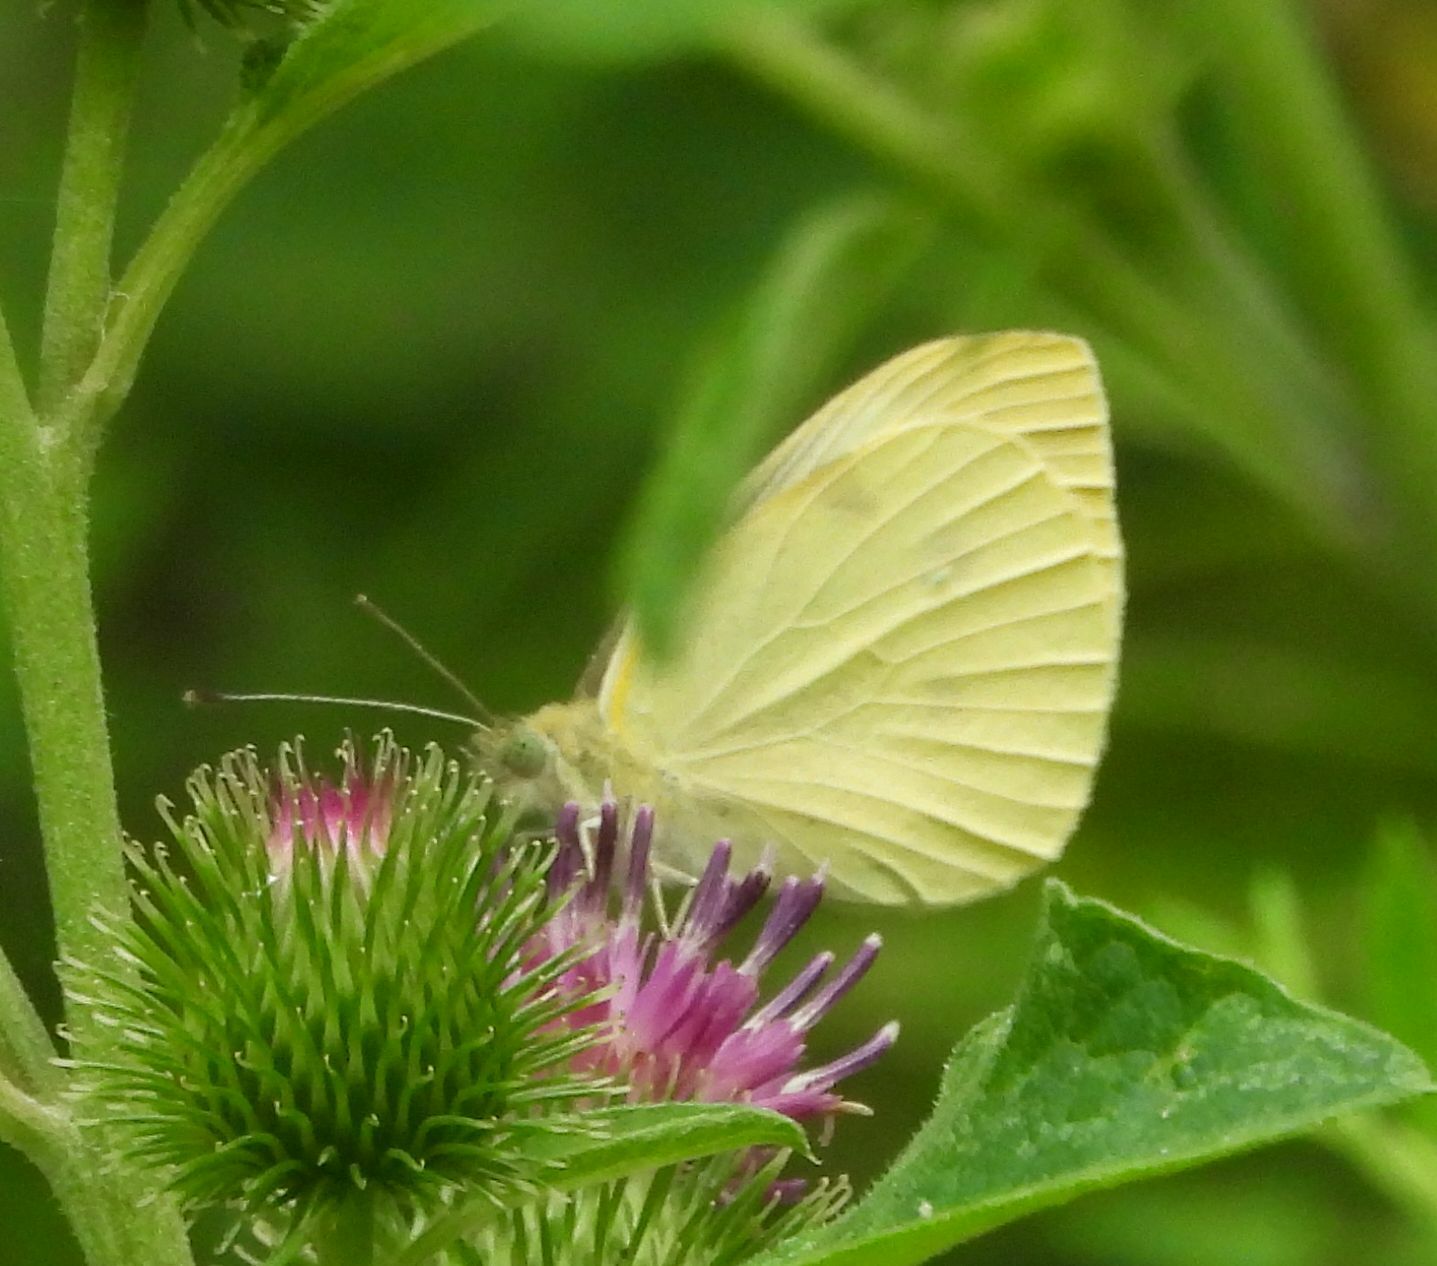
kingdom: Animalia
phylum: Arthropoda
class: Insecta
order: Lepidoptera
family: Pieridae
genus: Pieris
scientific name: Pieris rapae
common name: Small white
